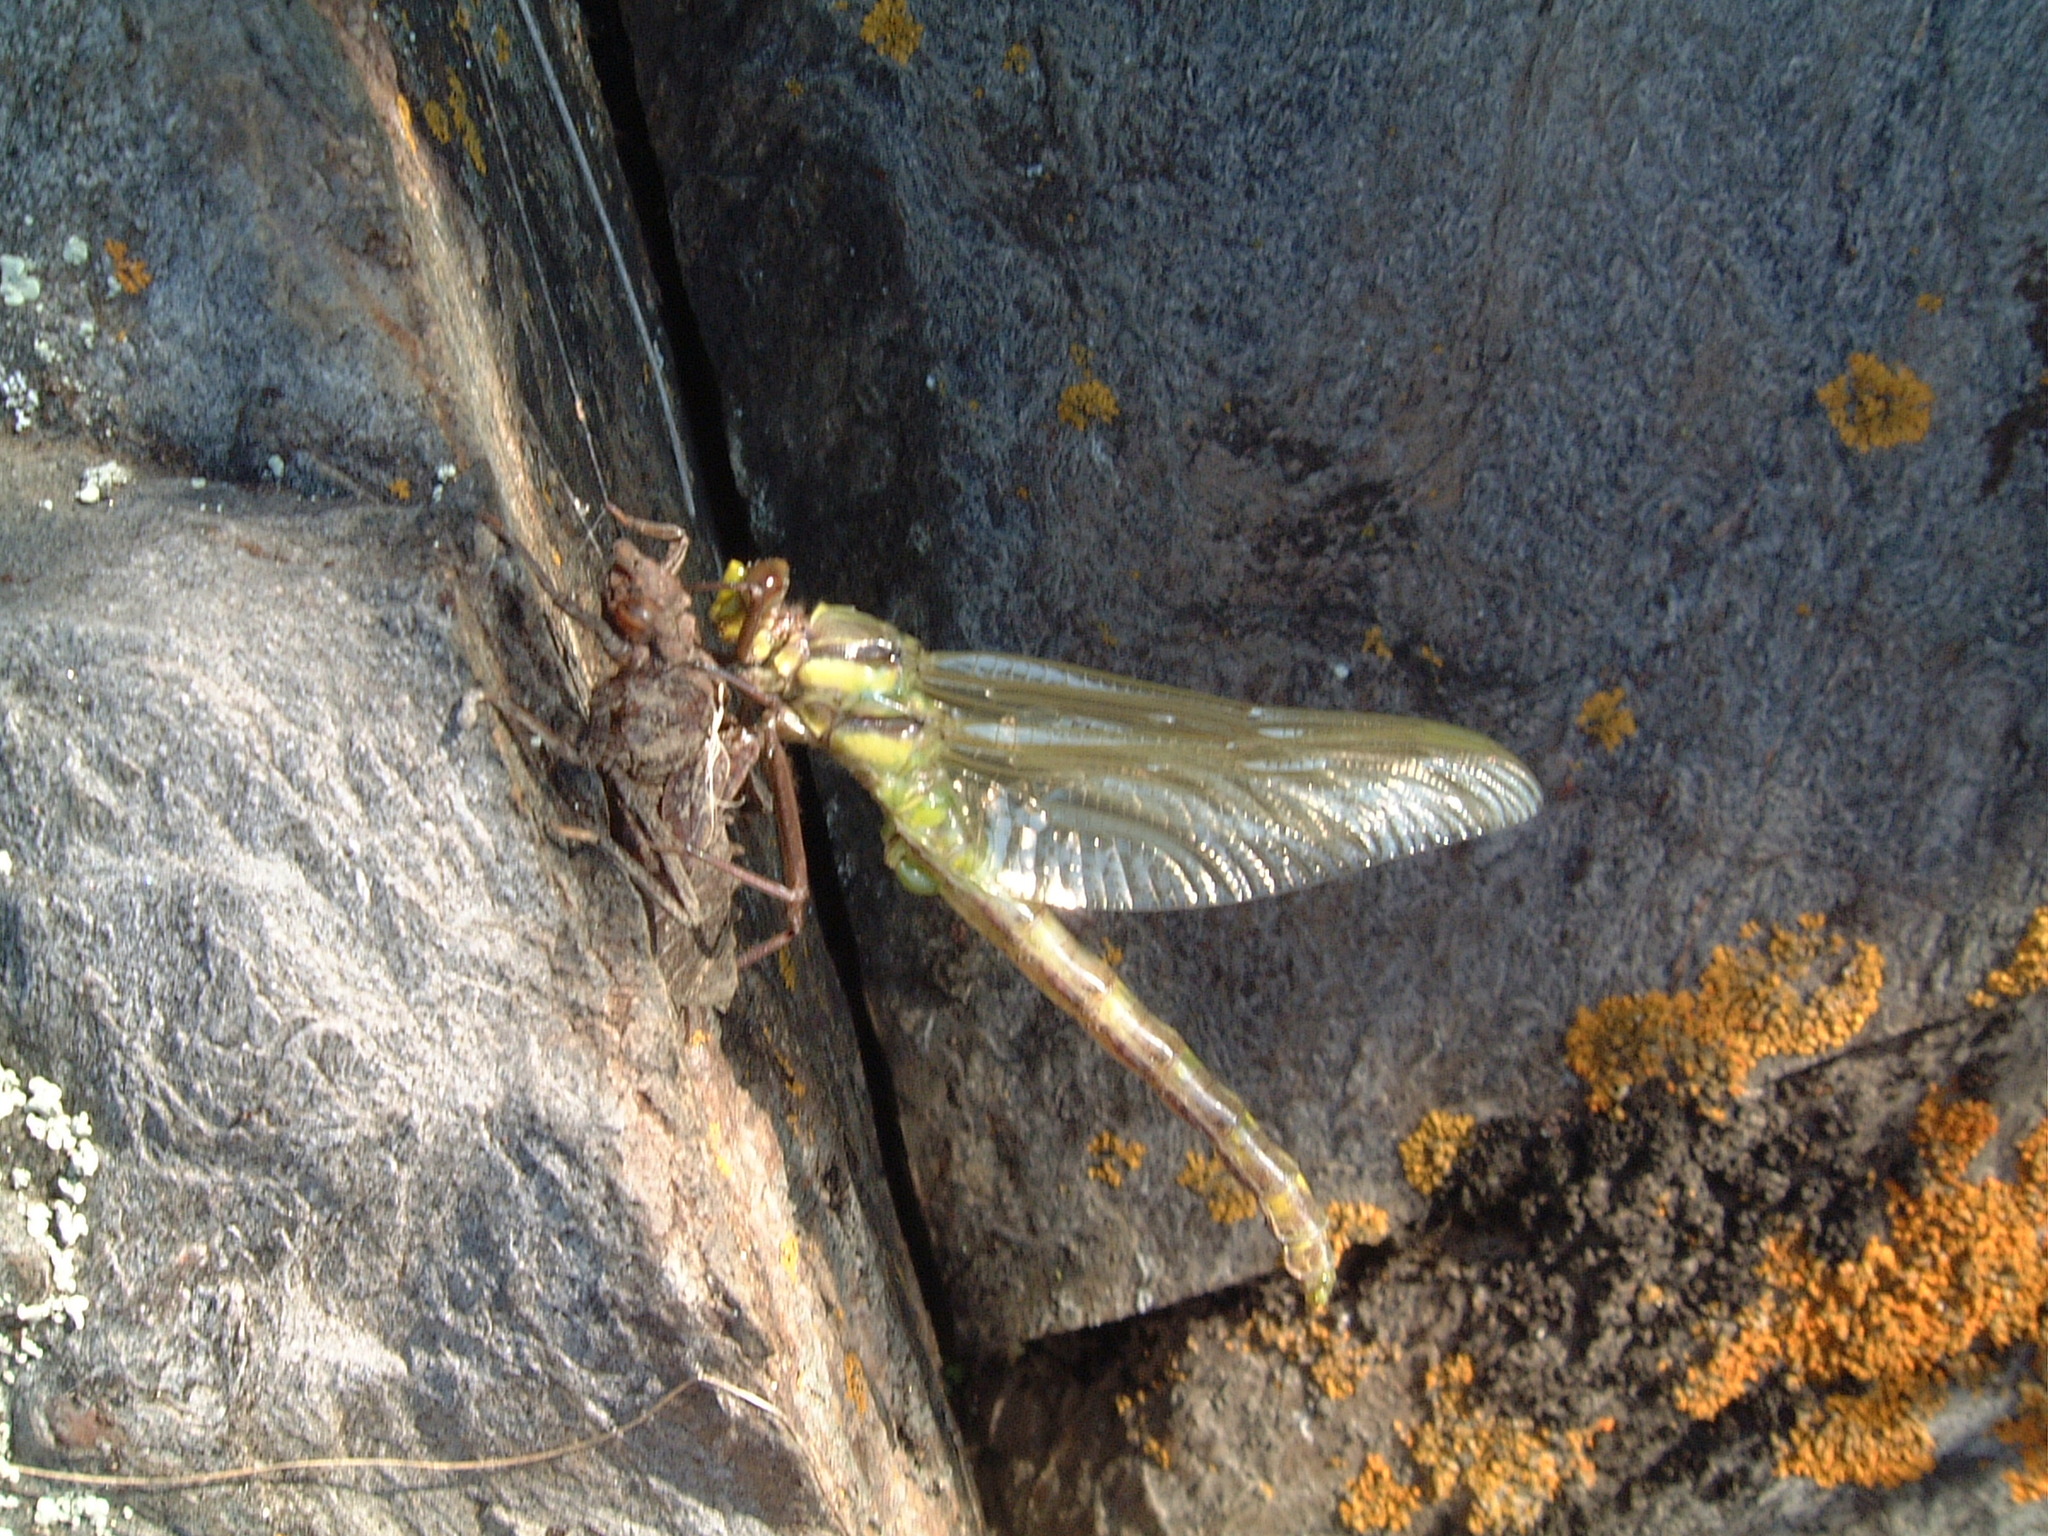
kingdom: Animalia
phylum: Arthropoda
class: Insecta
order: Odonata
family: Gomphidae
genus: Hagenius
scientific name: Hagenius brevistylus
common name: Dragonhunter
